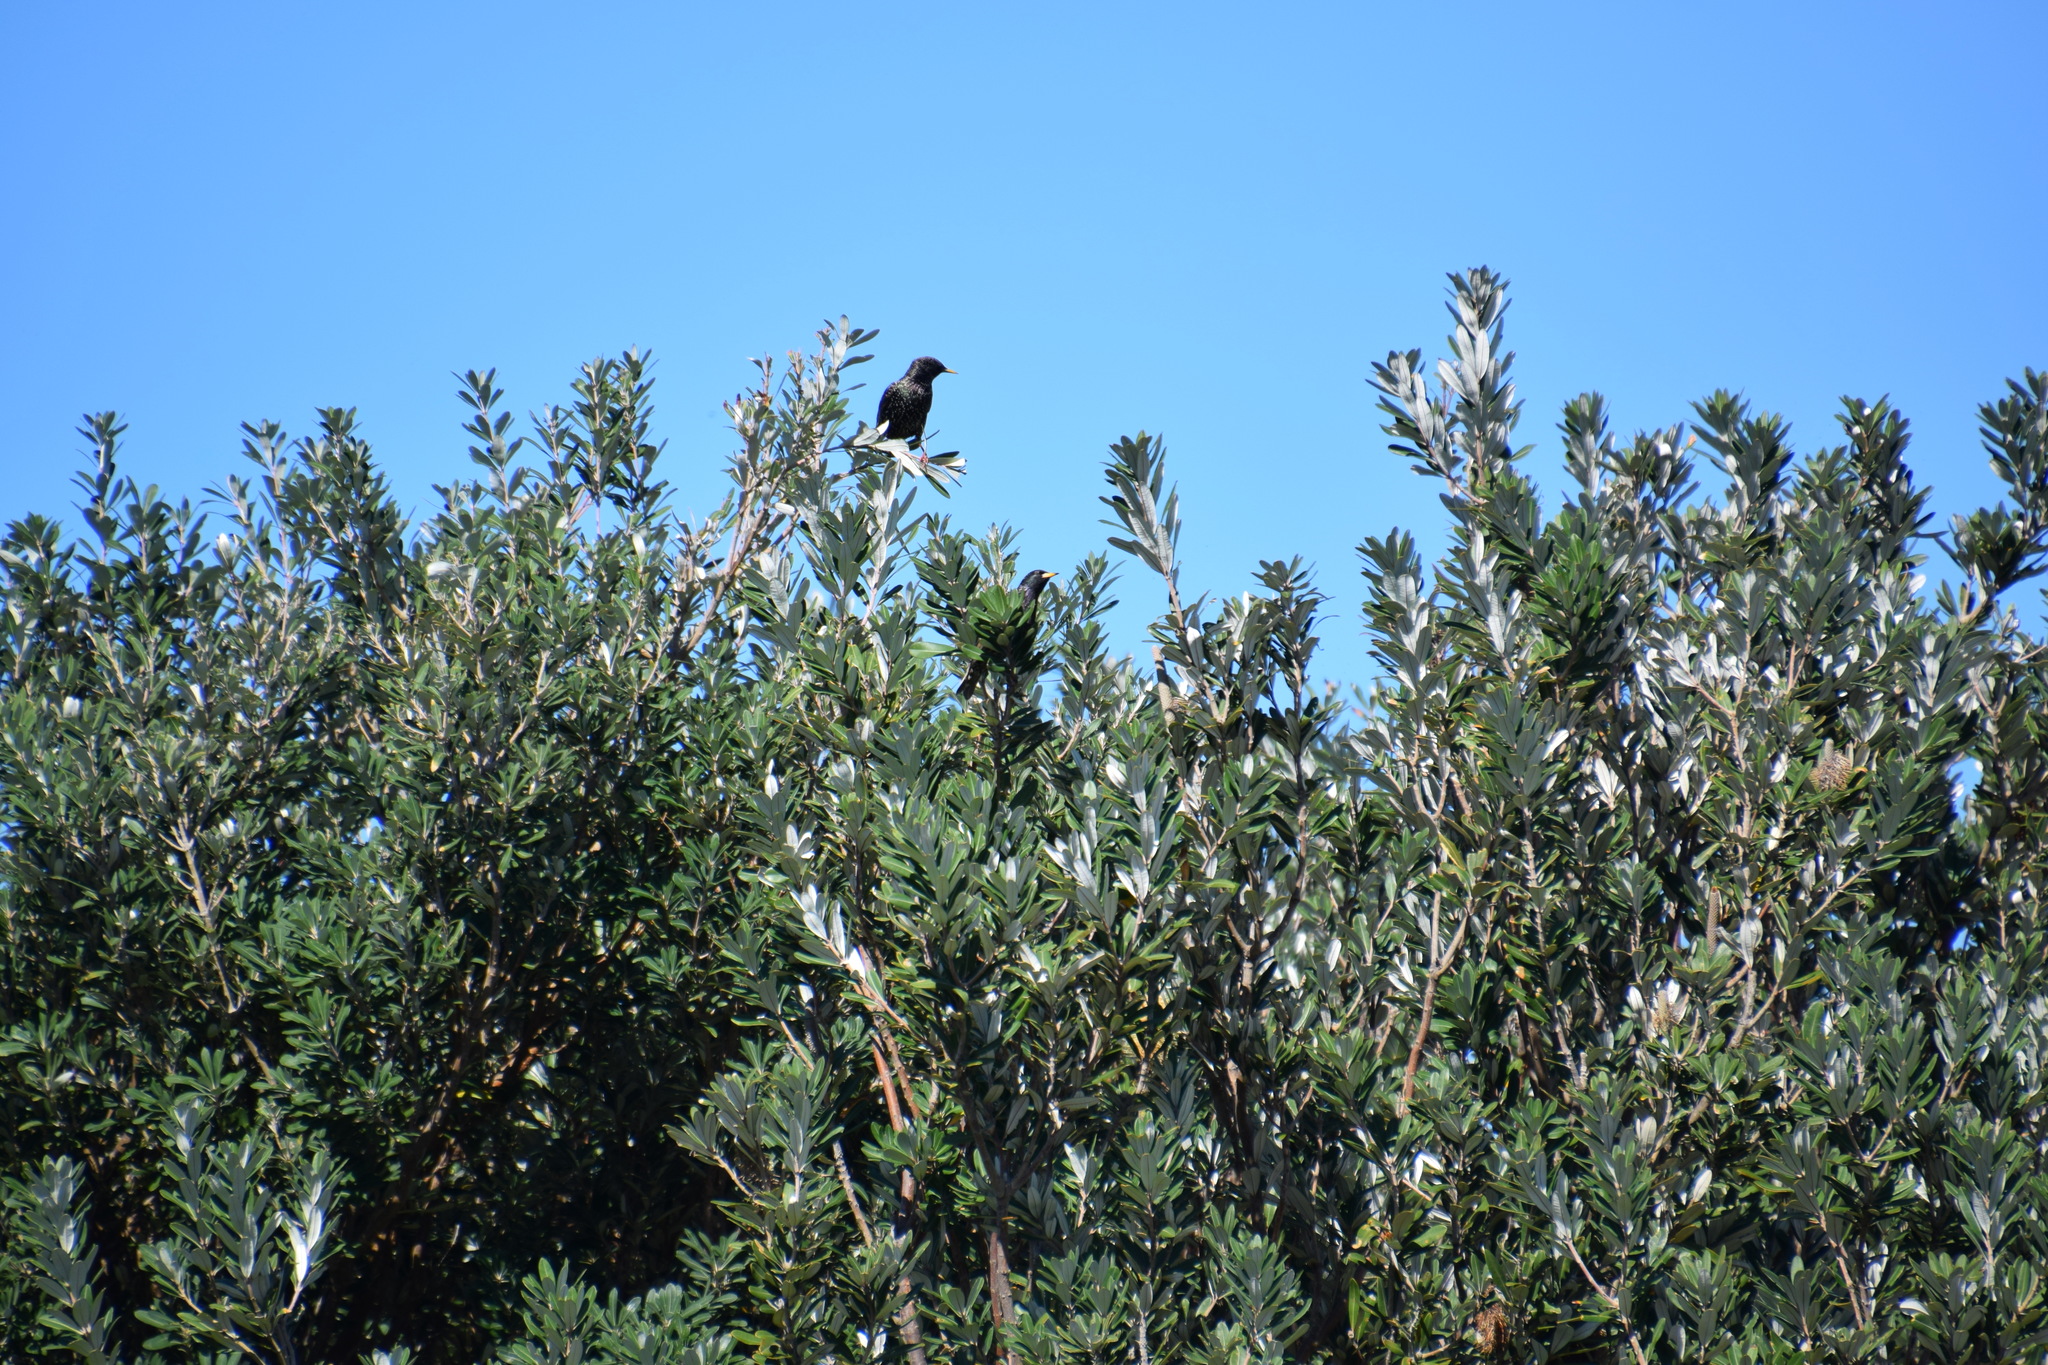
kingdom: Animalia
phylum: Chordata
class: Aves
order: Passeriformes
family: Sturnidae
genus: Sturnus
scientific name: Sturnus vulgaris
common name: Common starling
